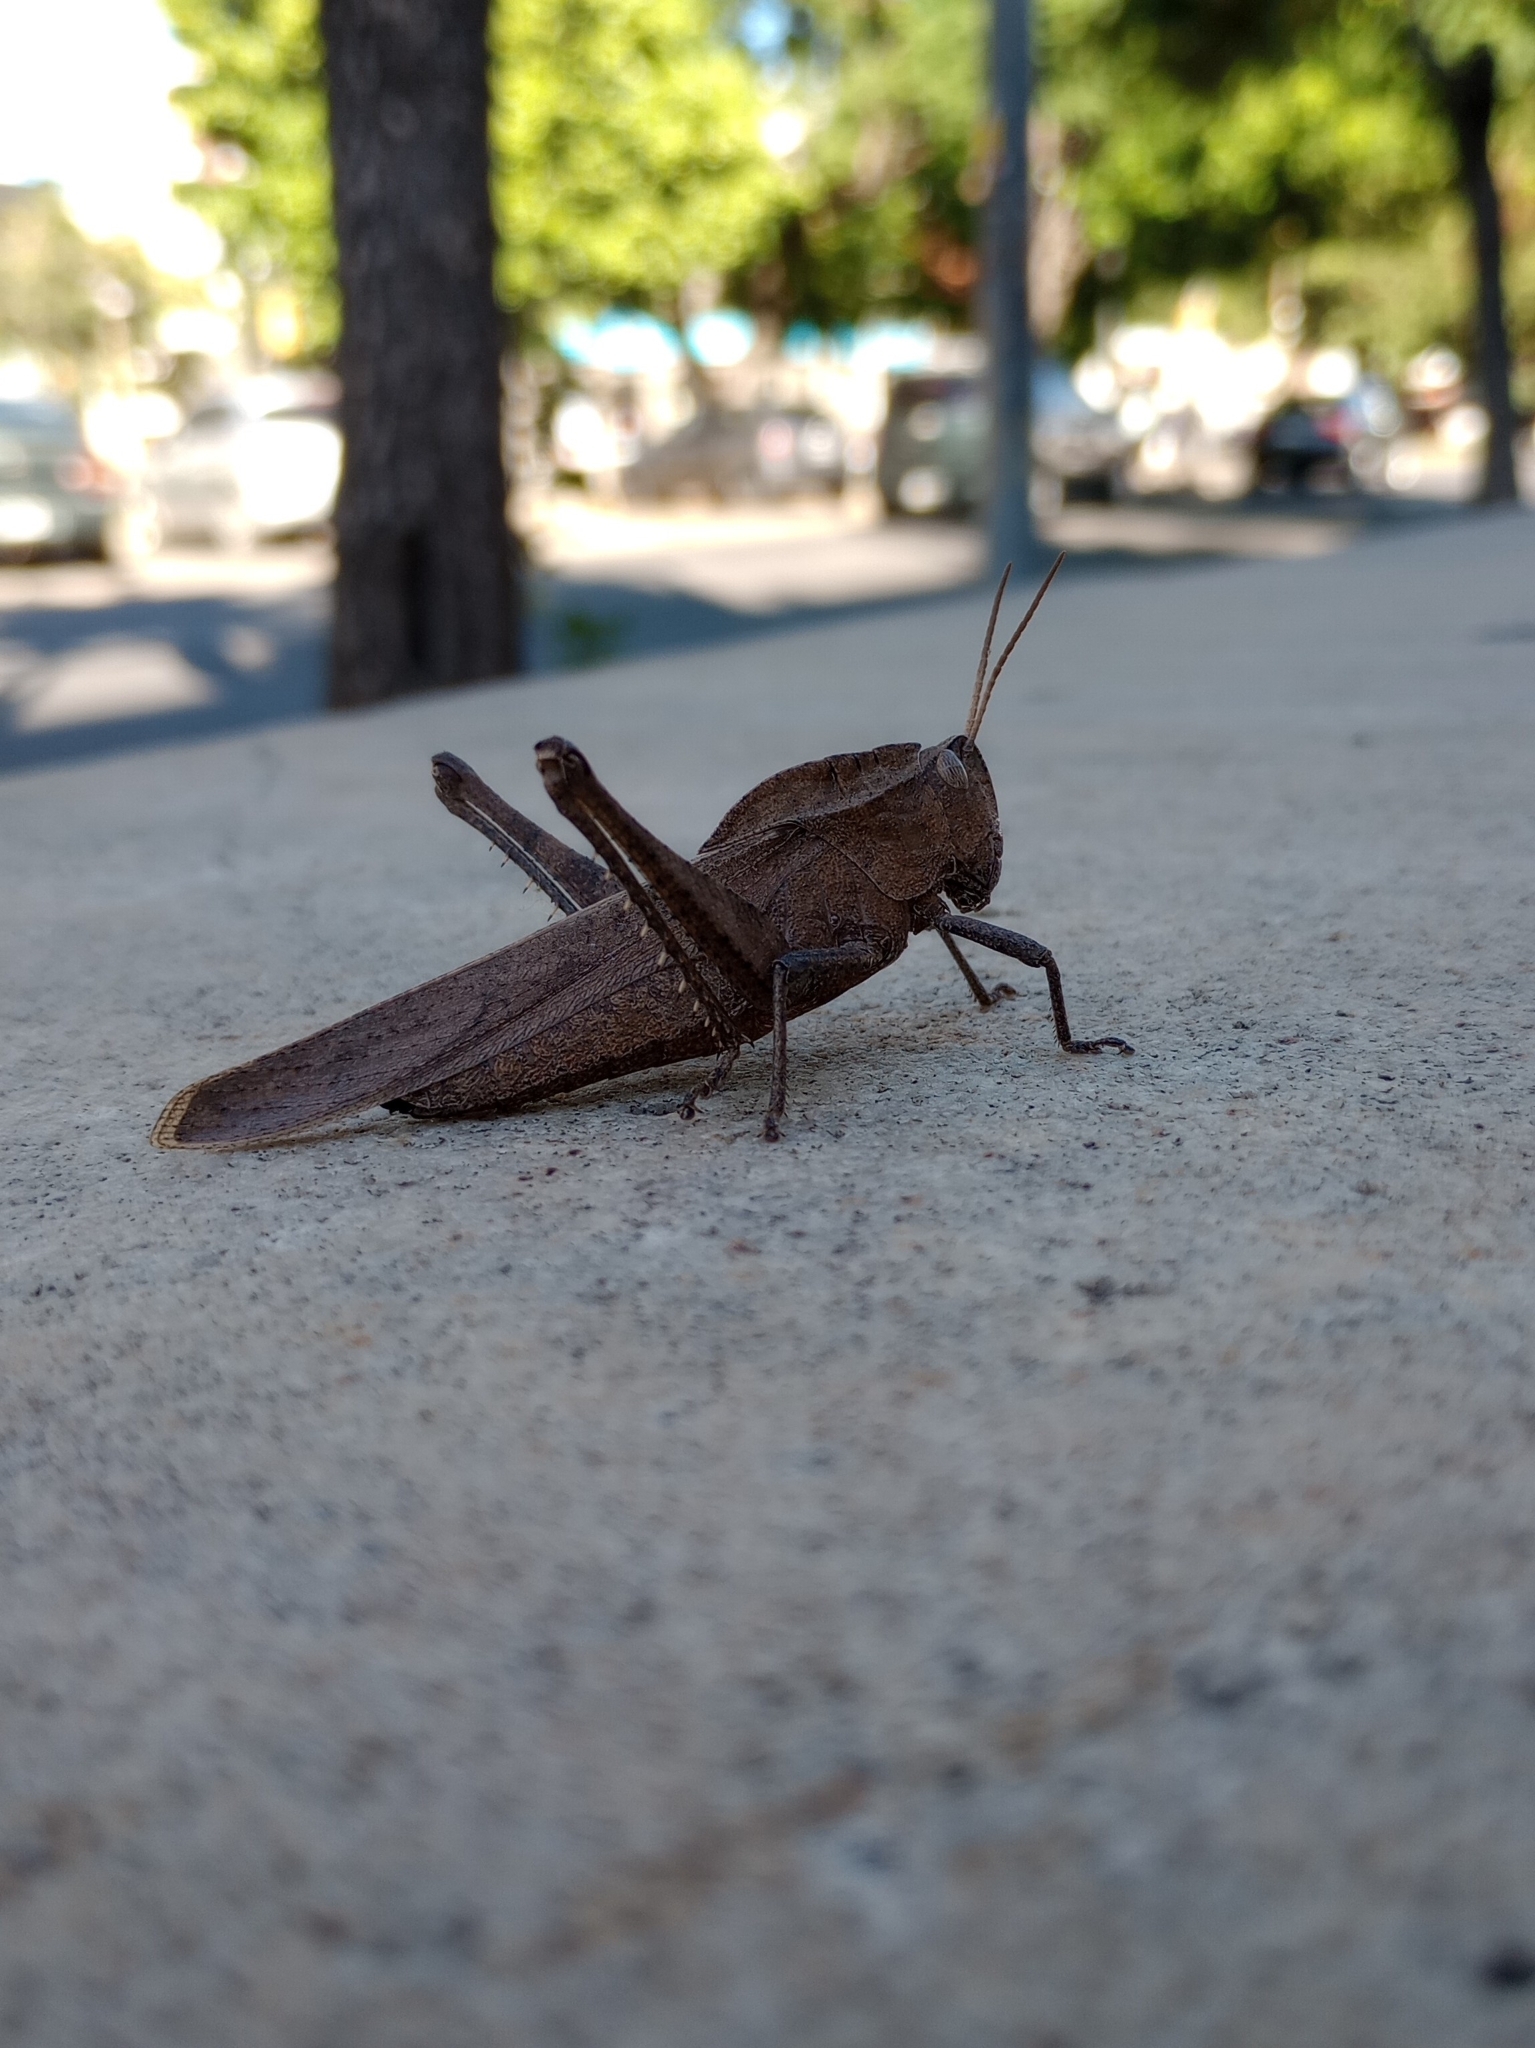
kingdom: Animalia
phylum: Arthropoda
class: Insecta
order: Orthoptera
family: Romaleidae
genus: Xyleus
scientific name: Xyleus discoideus
